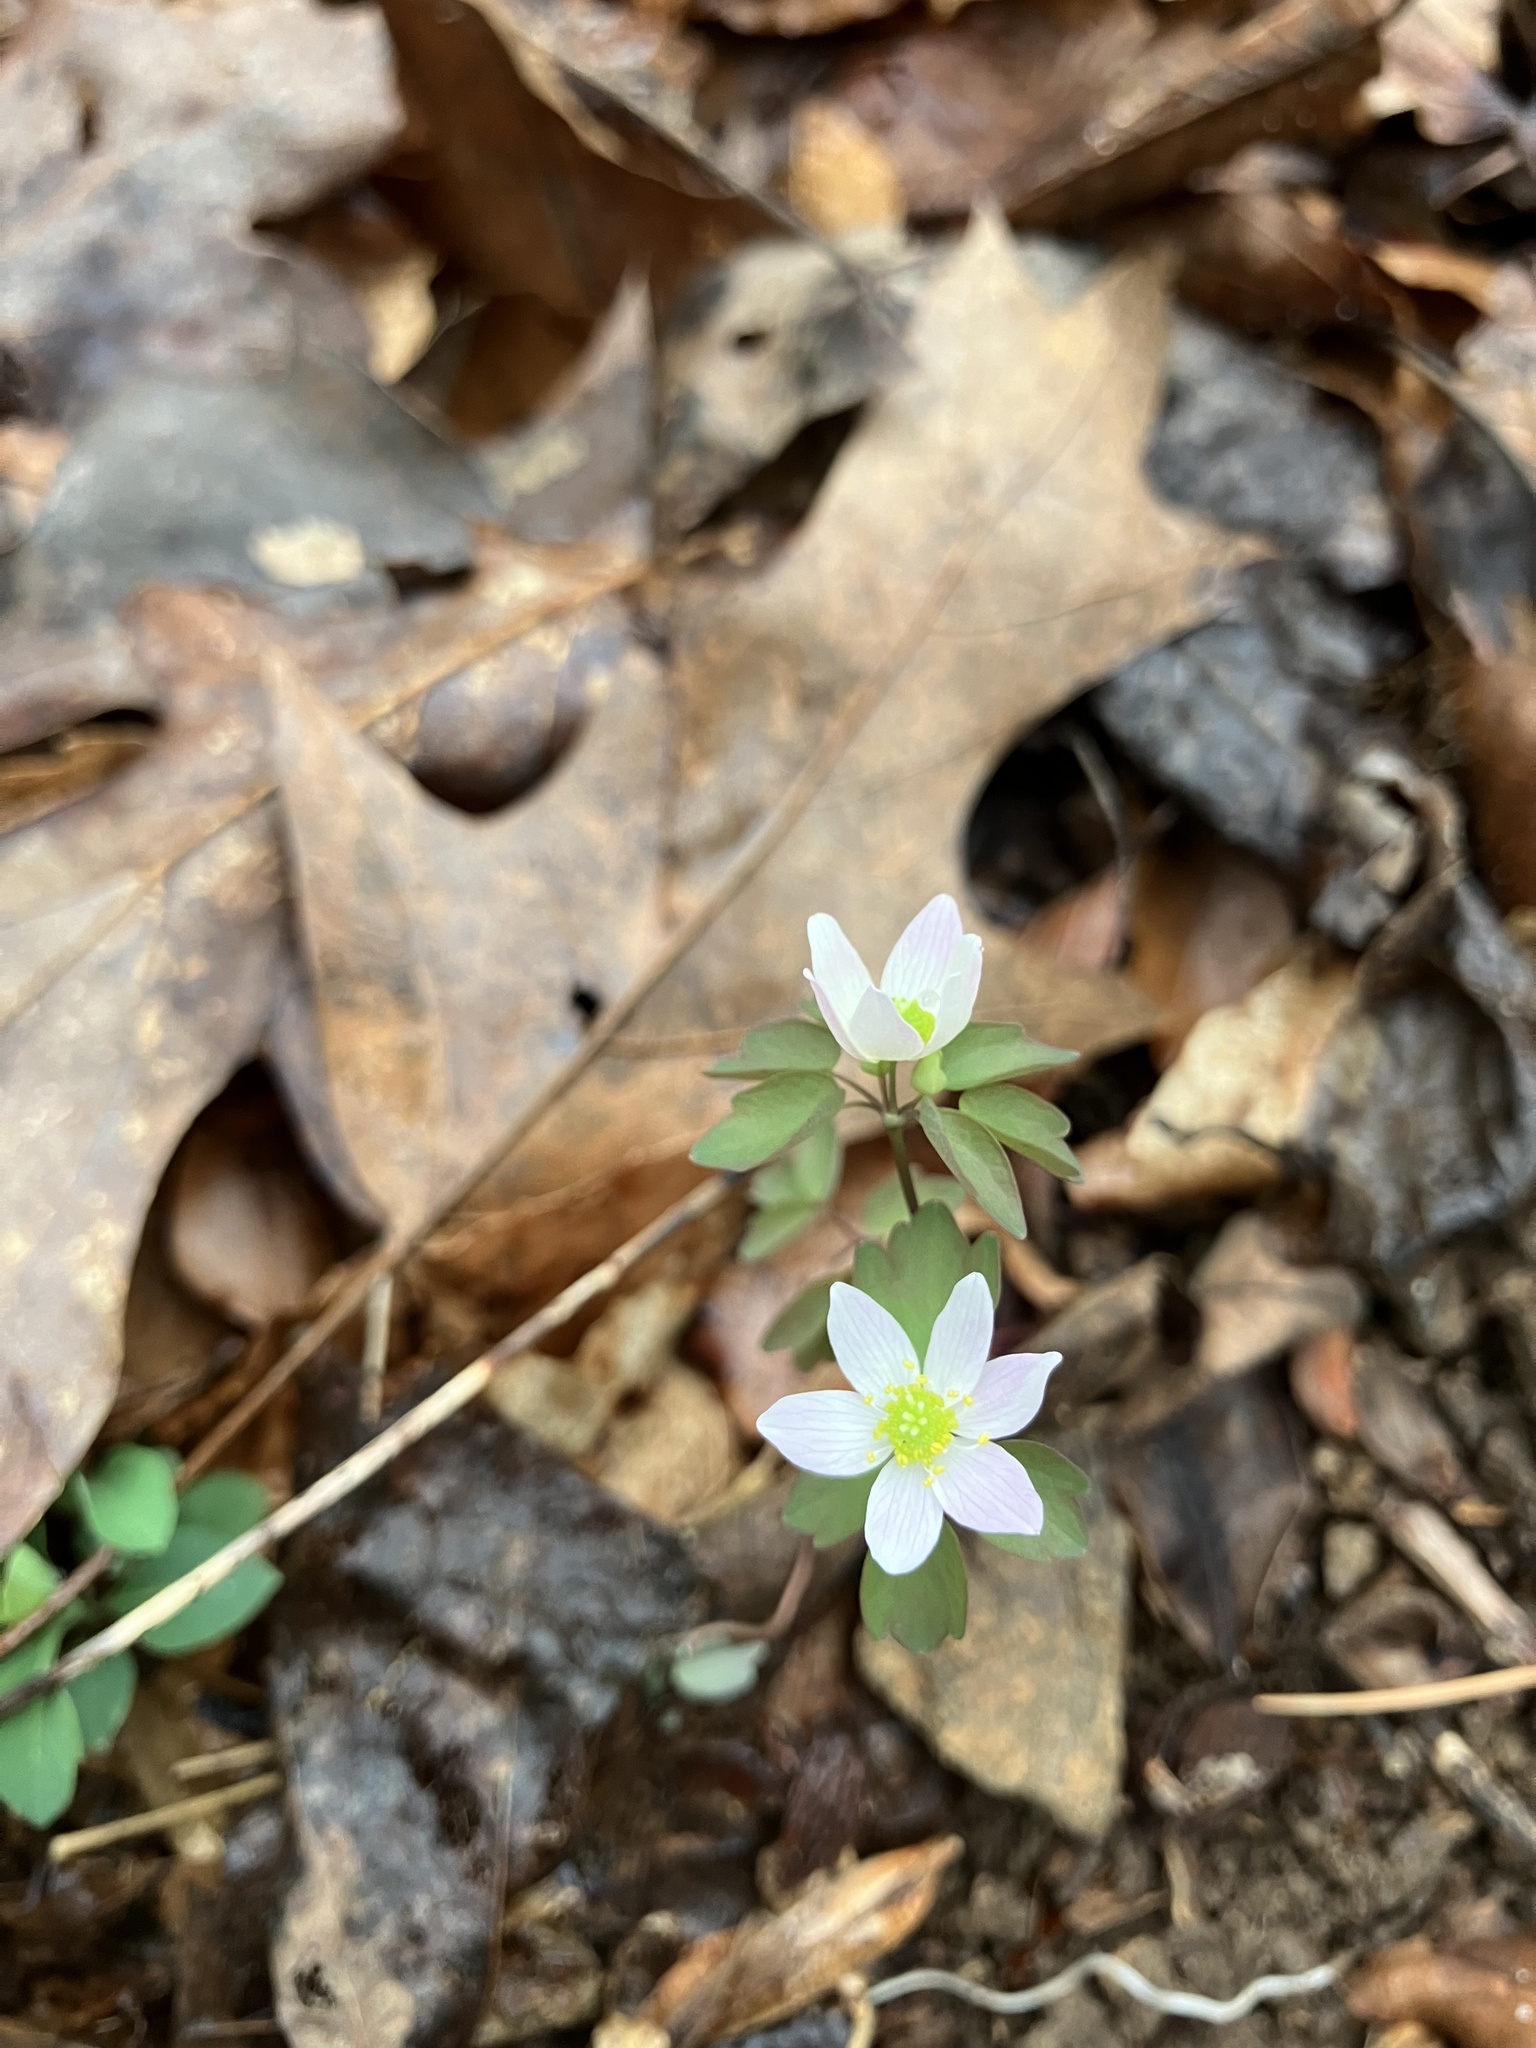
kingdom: Plantae
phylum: Tracheophyta
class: Magnoliopsida
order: Ranunculales
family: Ranunculaceae
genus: Thalictrum
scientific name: Thalictrum thalictroides
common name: Rue-anemone
